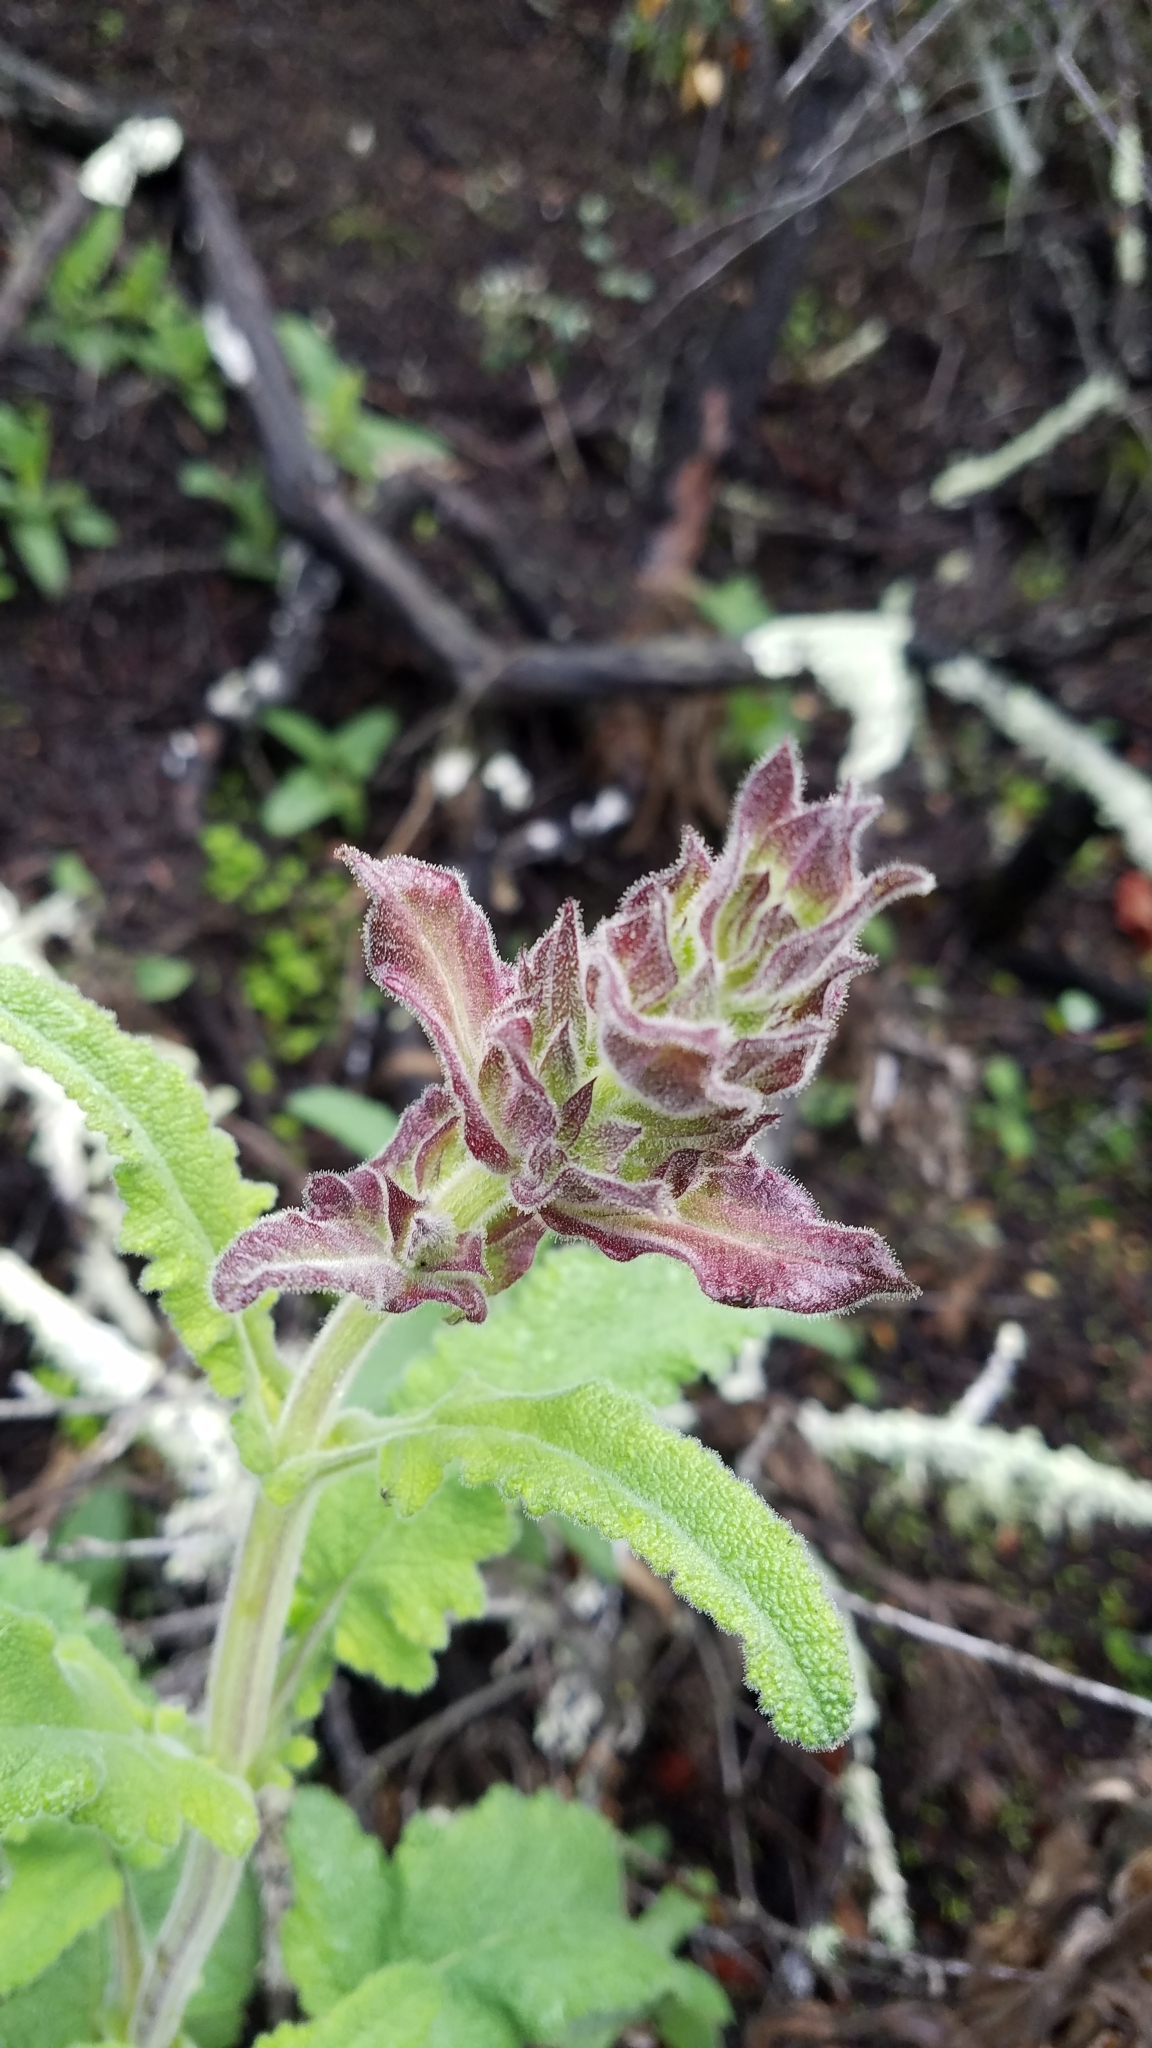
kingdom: Plantae
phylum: Tracheophyta
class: Magnoliopsida
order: Lamiales
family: Lamiaceae
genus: Salvia
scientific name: Salvia spathacea
